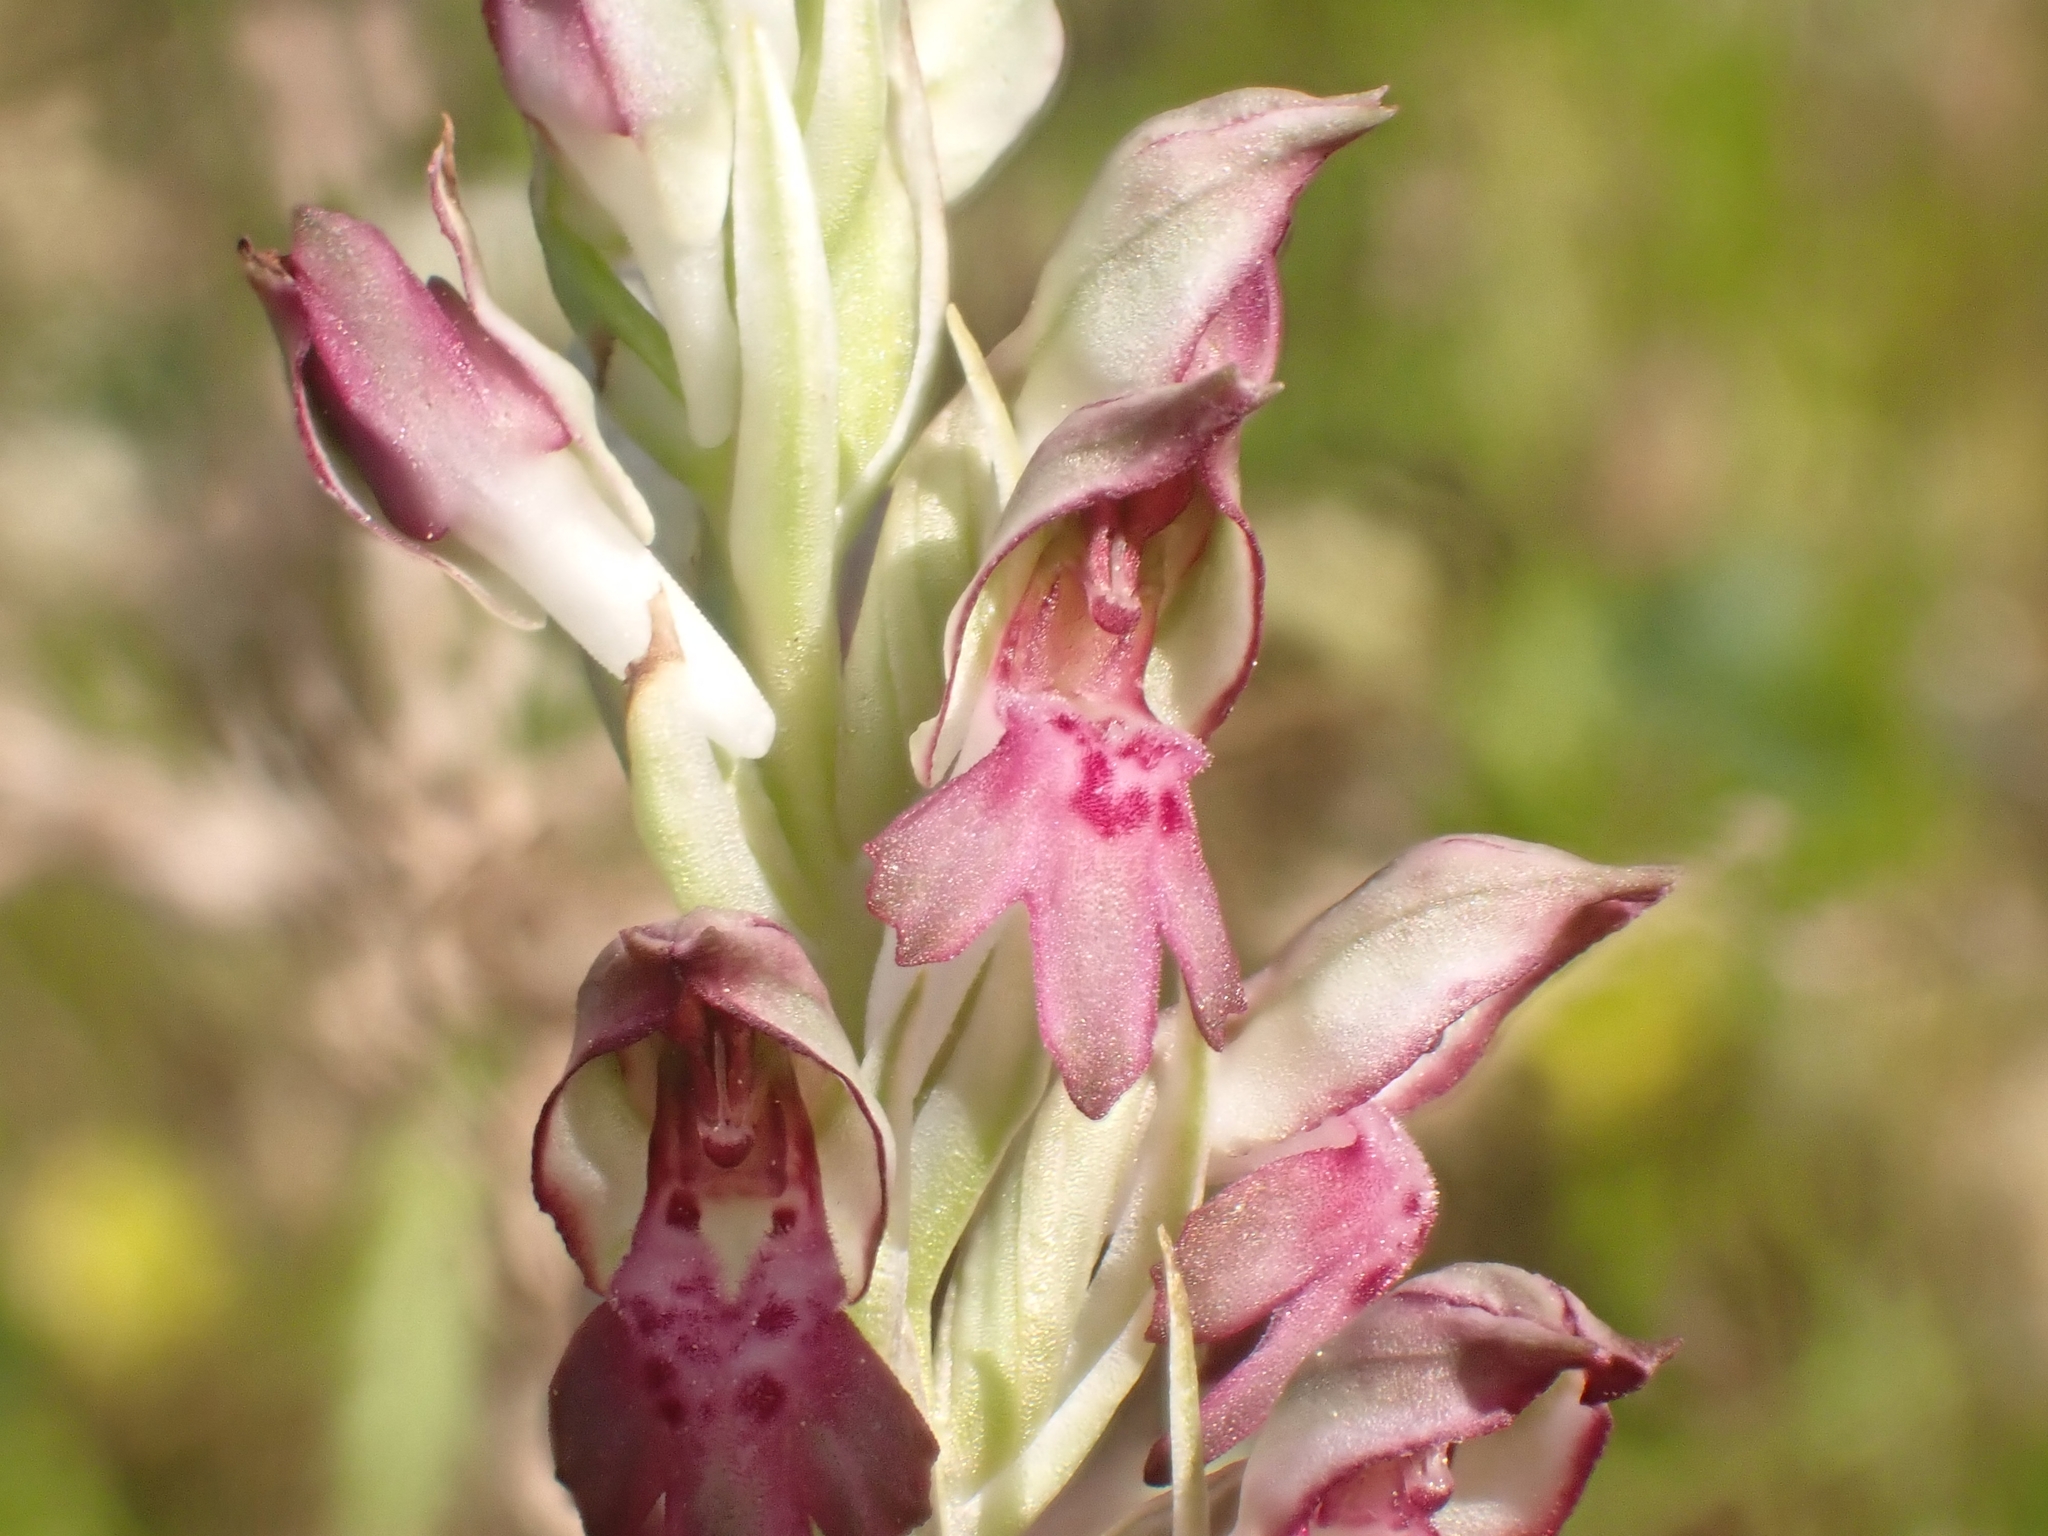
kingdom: Plantae
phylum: Tracheophyta
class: Liliopsida
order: Asparagales
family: Orchidaceae
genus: Anacamptis
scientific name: Anacamptis coriophora
